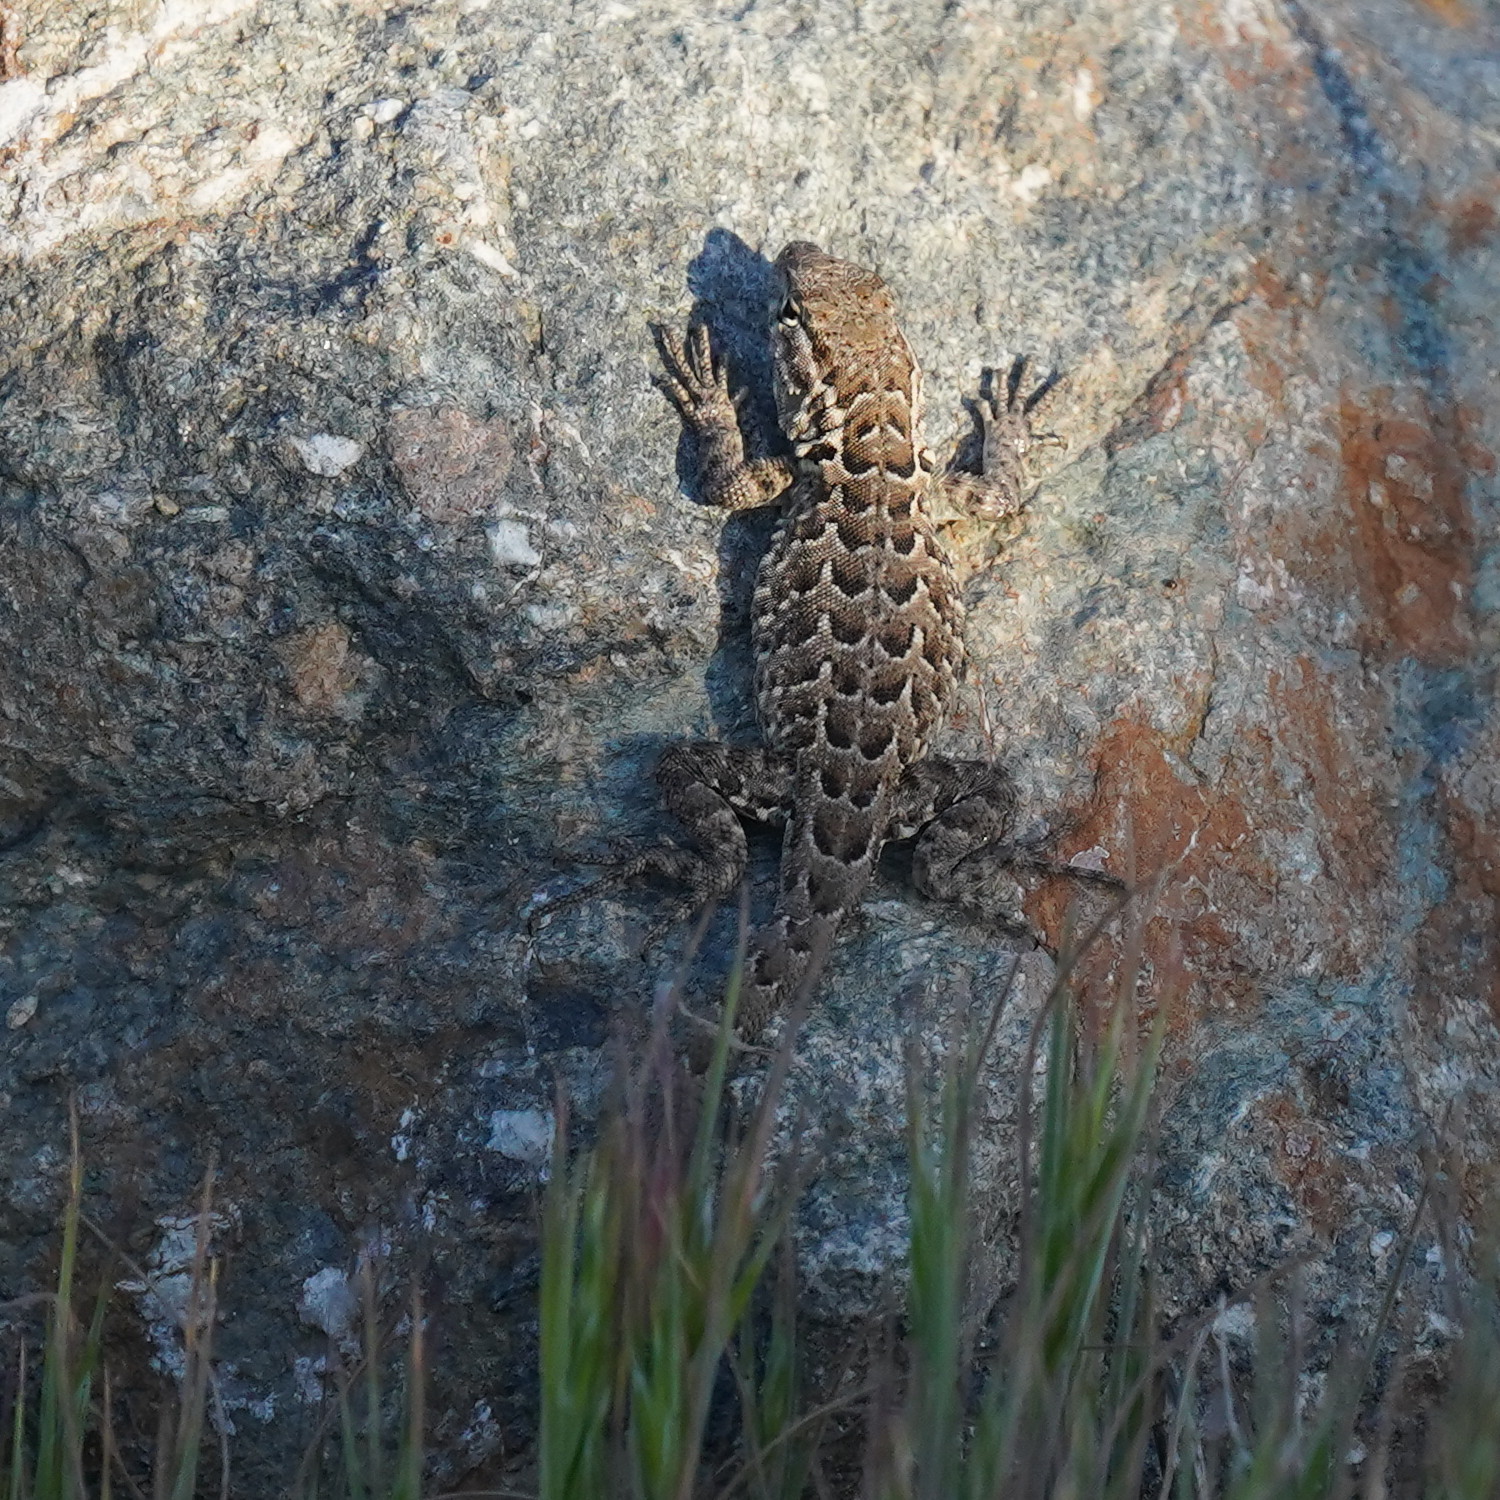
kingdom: Animalia
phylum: Chordata
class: Squamata
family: Phrynosomatidae
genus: Uta
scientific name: Uta stansburiana
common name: Side-blotched lizard
